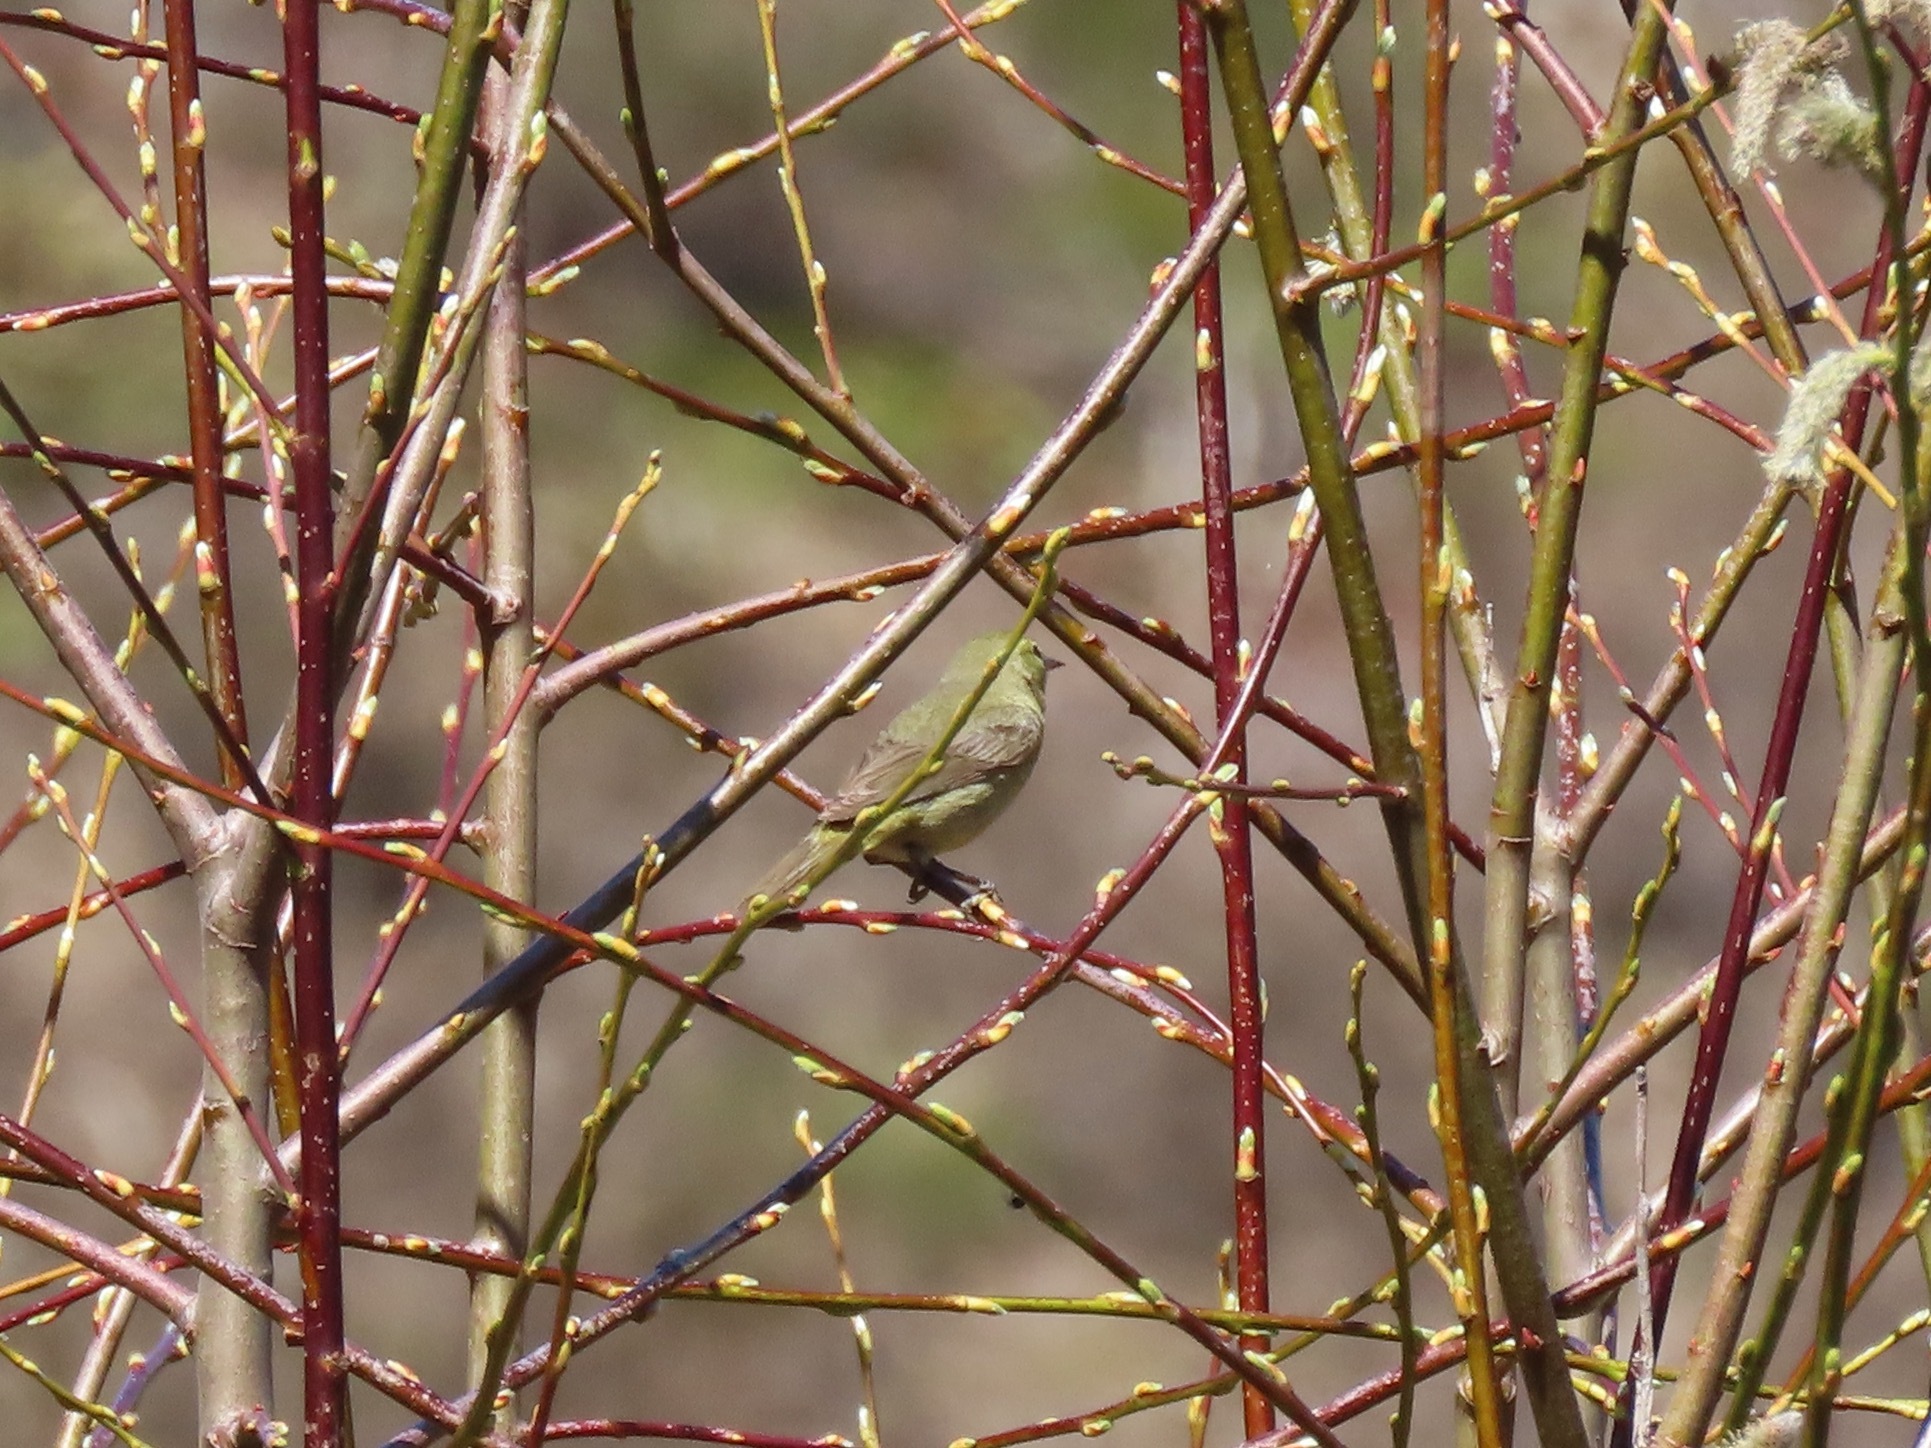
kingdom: Animalia
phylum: Chordata
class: Aves
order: Passeriformes
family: Parulidae
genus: Leiothlypis
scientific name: Leiothlypis celata
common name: Orange-crowned warbler
